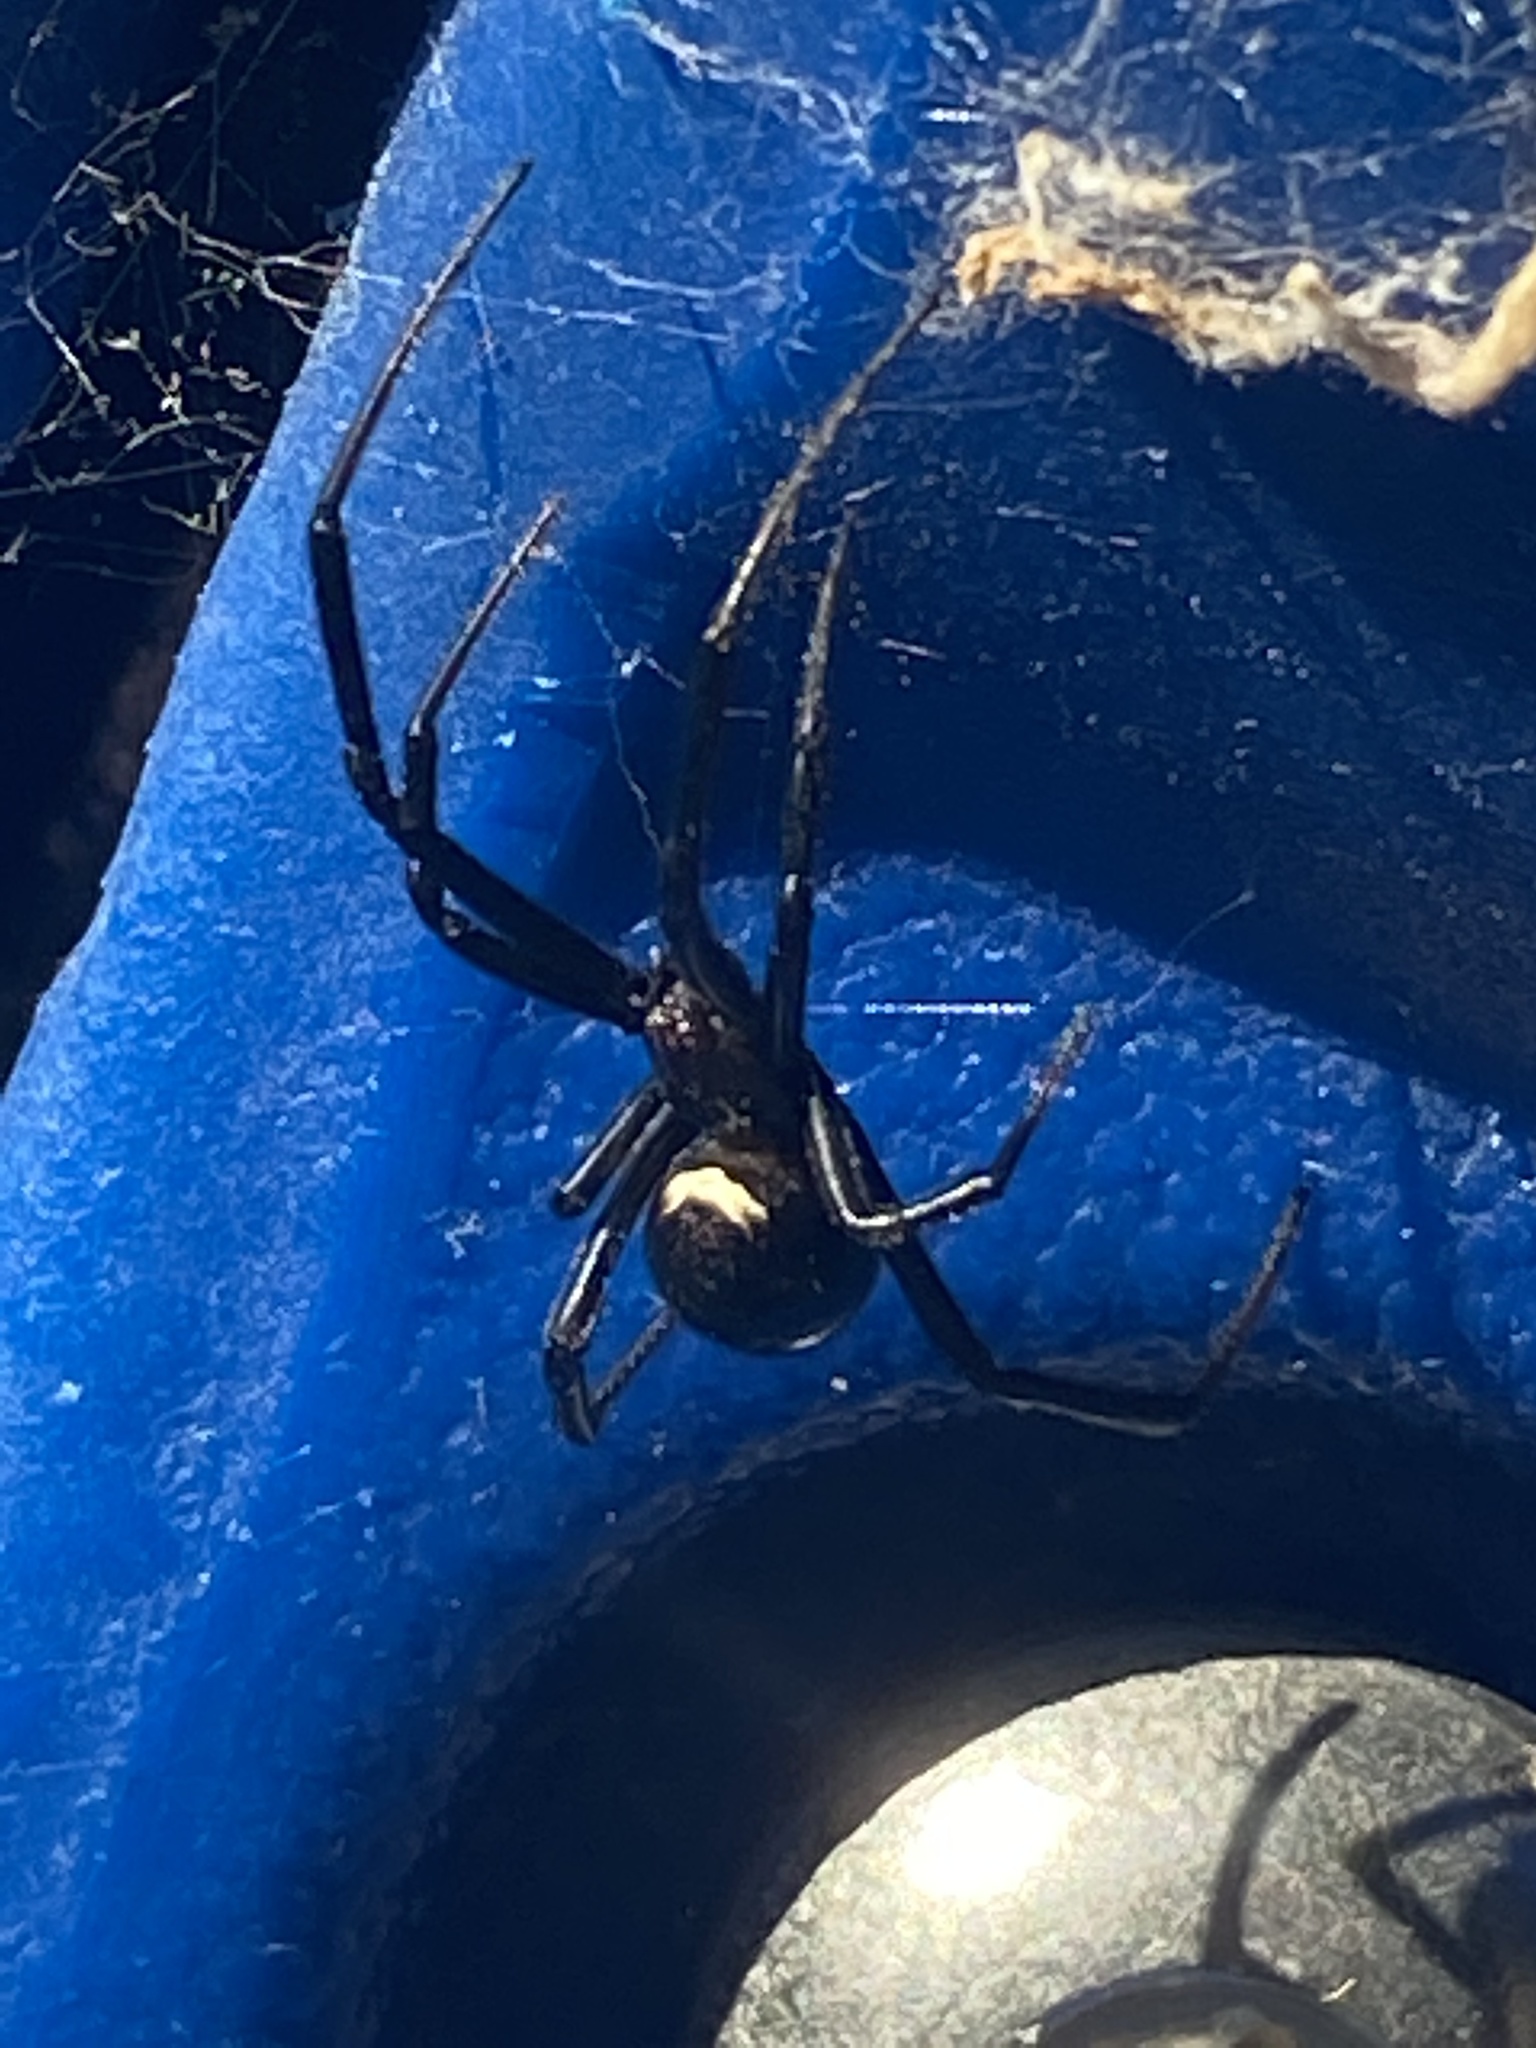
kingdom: Animalia
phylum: Arthropoda
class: Arachnida
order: Araneae
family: Theridiidae
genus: Latrodectus
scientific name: Latrodectus hesperus
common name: Western black widow
